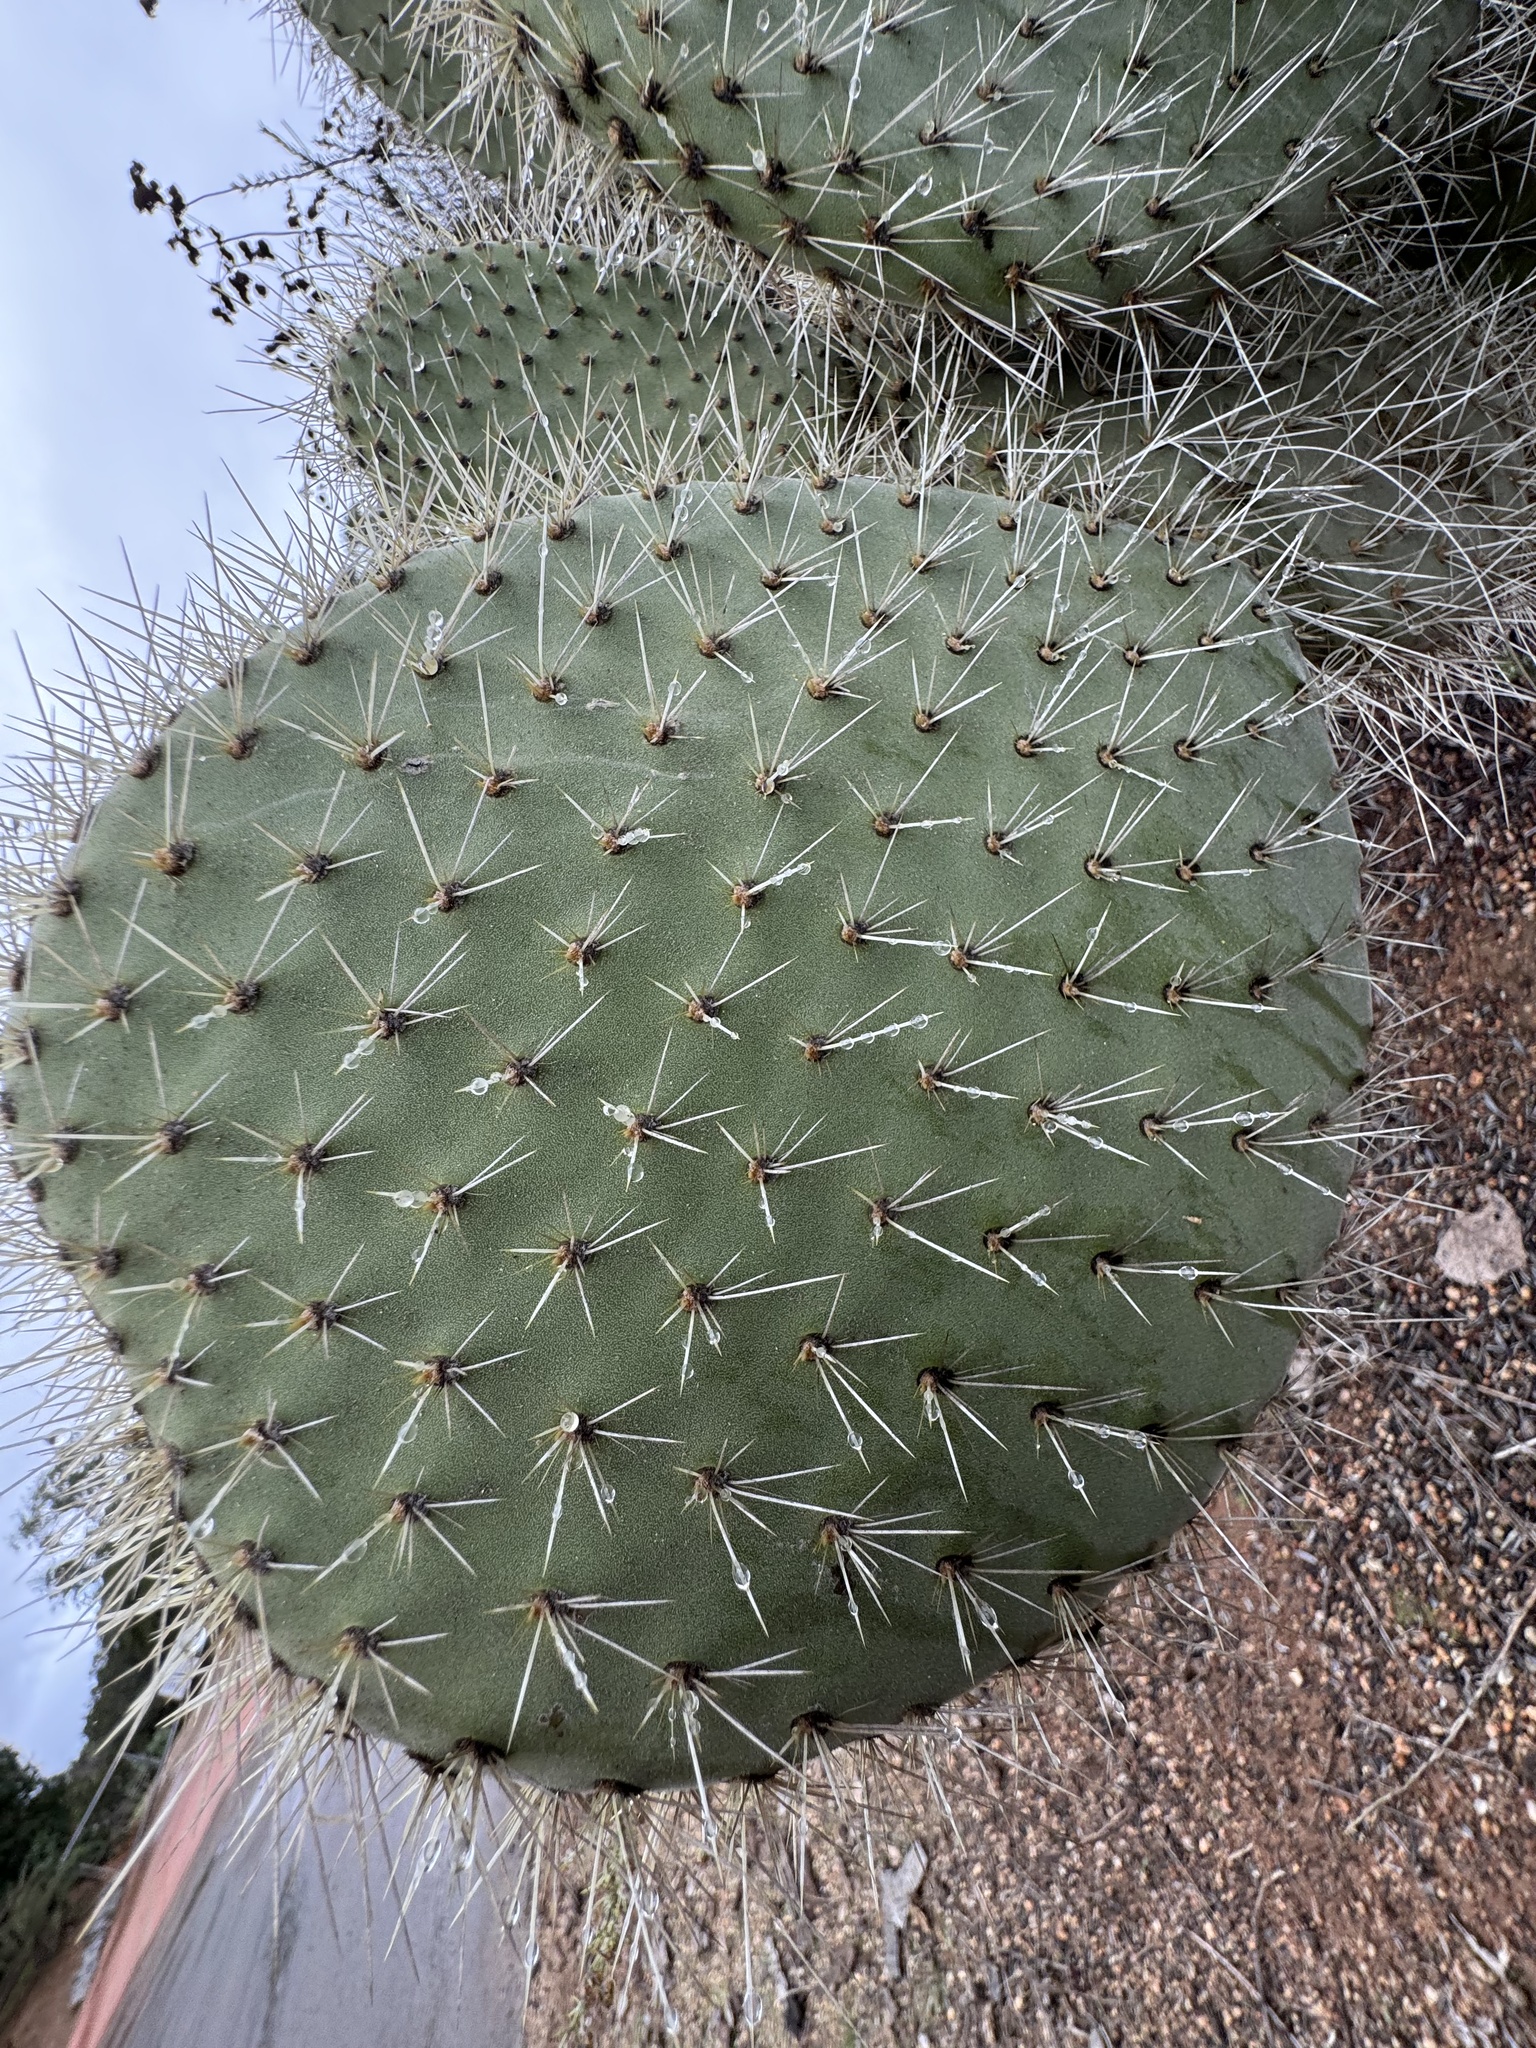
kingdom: Plantae
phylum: Tracheophyta
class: Magnoliopsida
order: Caryophyllales
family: Cactaceae
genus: Opuntia
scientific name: Opuntia leucotricha
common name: Arborescent pricklypear
